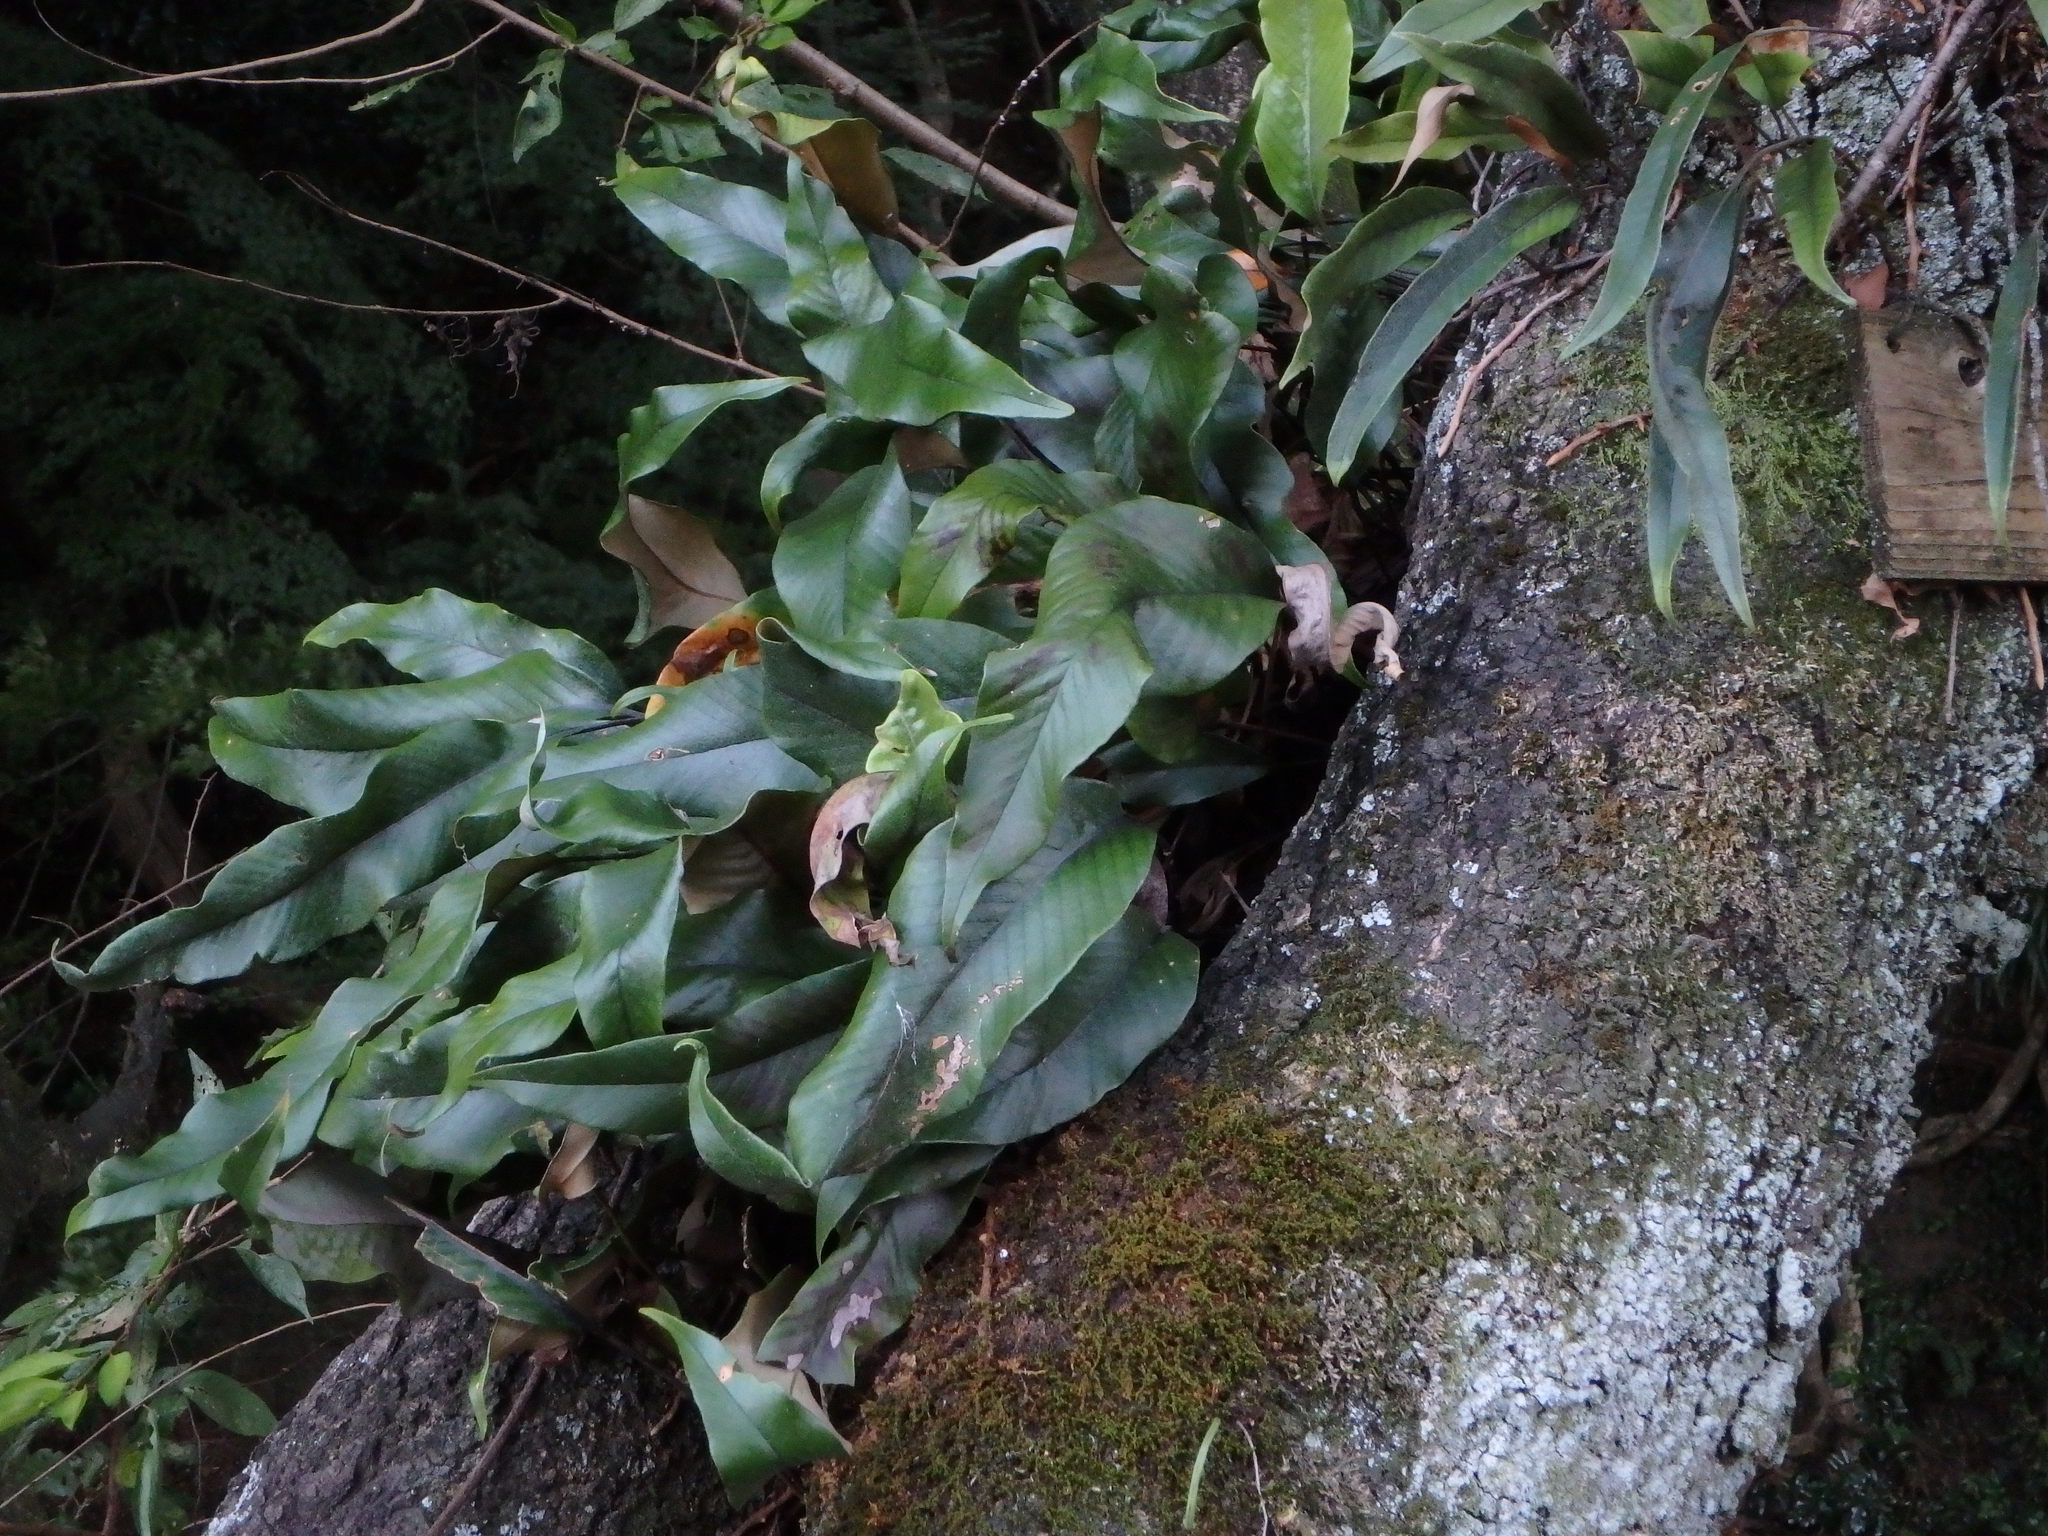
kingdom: Plantae
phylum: Tracheophyta
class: Polypodiopsida
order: Polypodiales
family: Polypodiaceae
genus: Pyrrosia
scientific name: Pyrrosia lingua
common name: Felt fern
